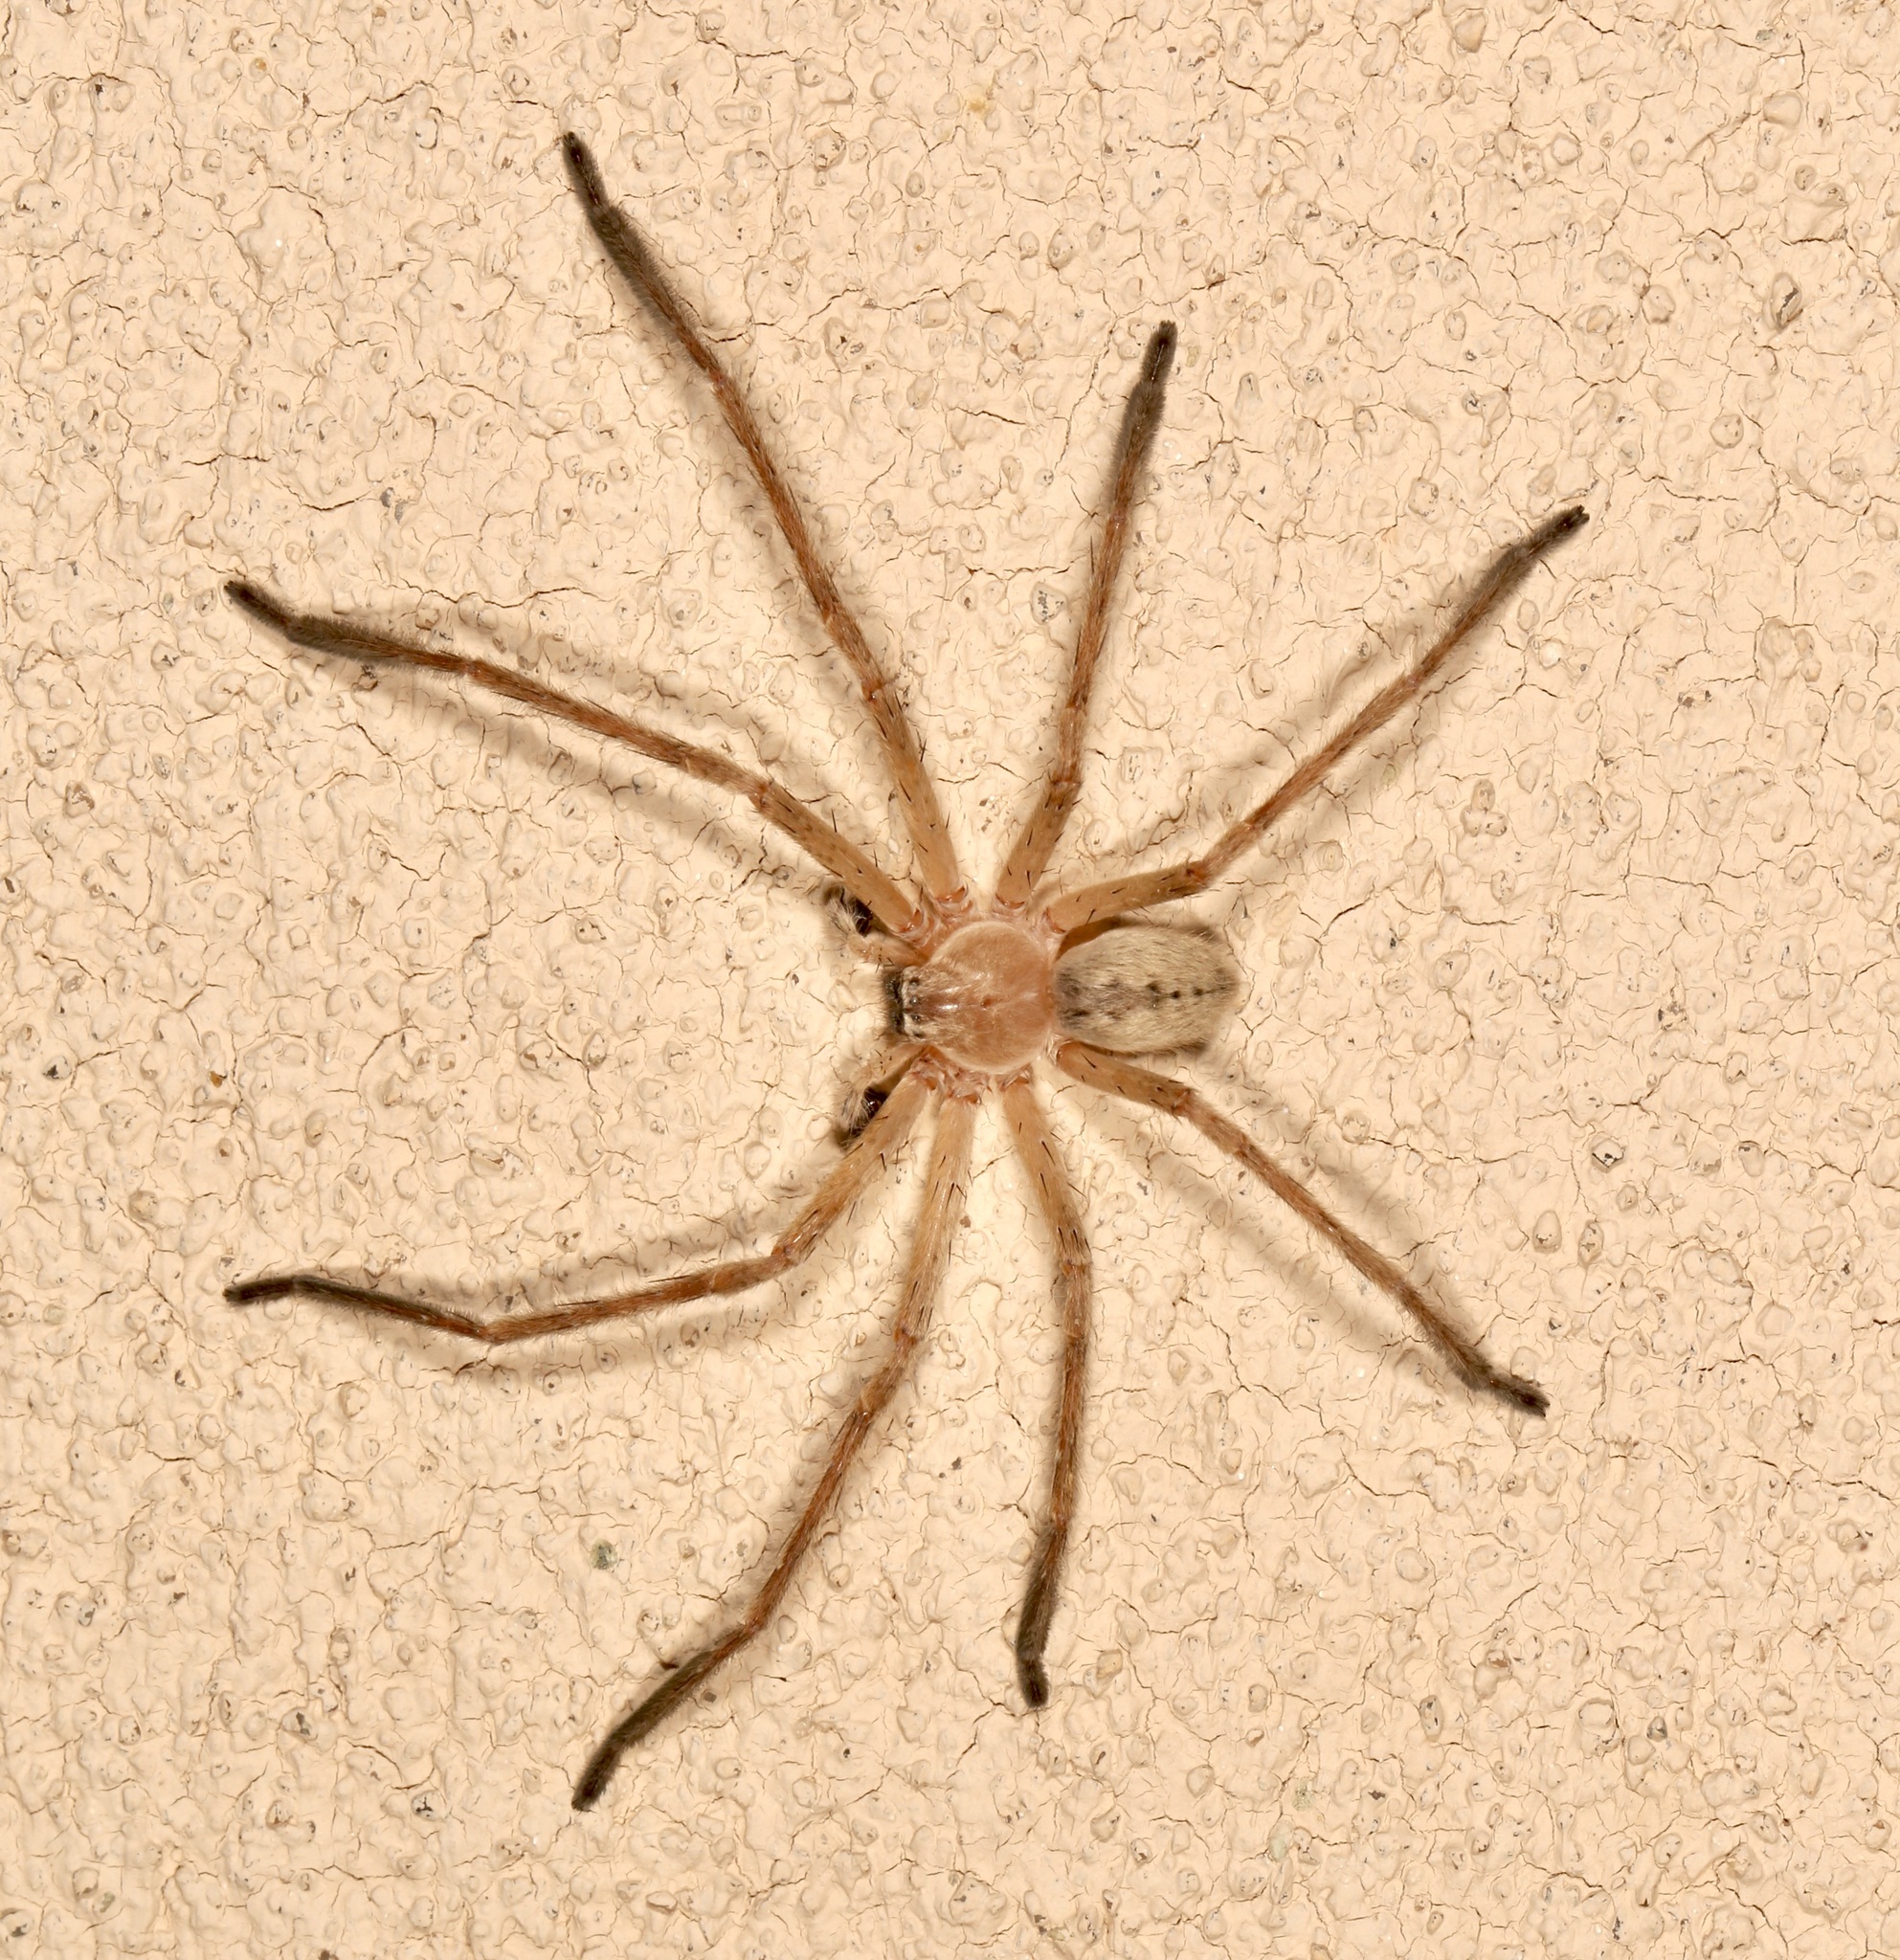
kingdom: Animalia
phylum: Arthropoda
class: Arachnida
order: Araneae
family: Sparassidae
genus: Olios
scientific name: Olios giganteus
